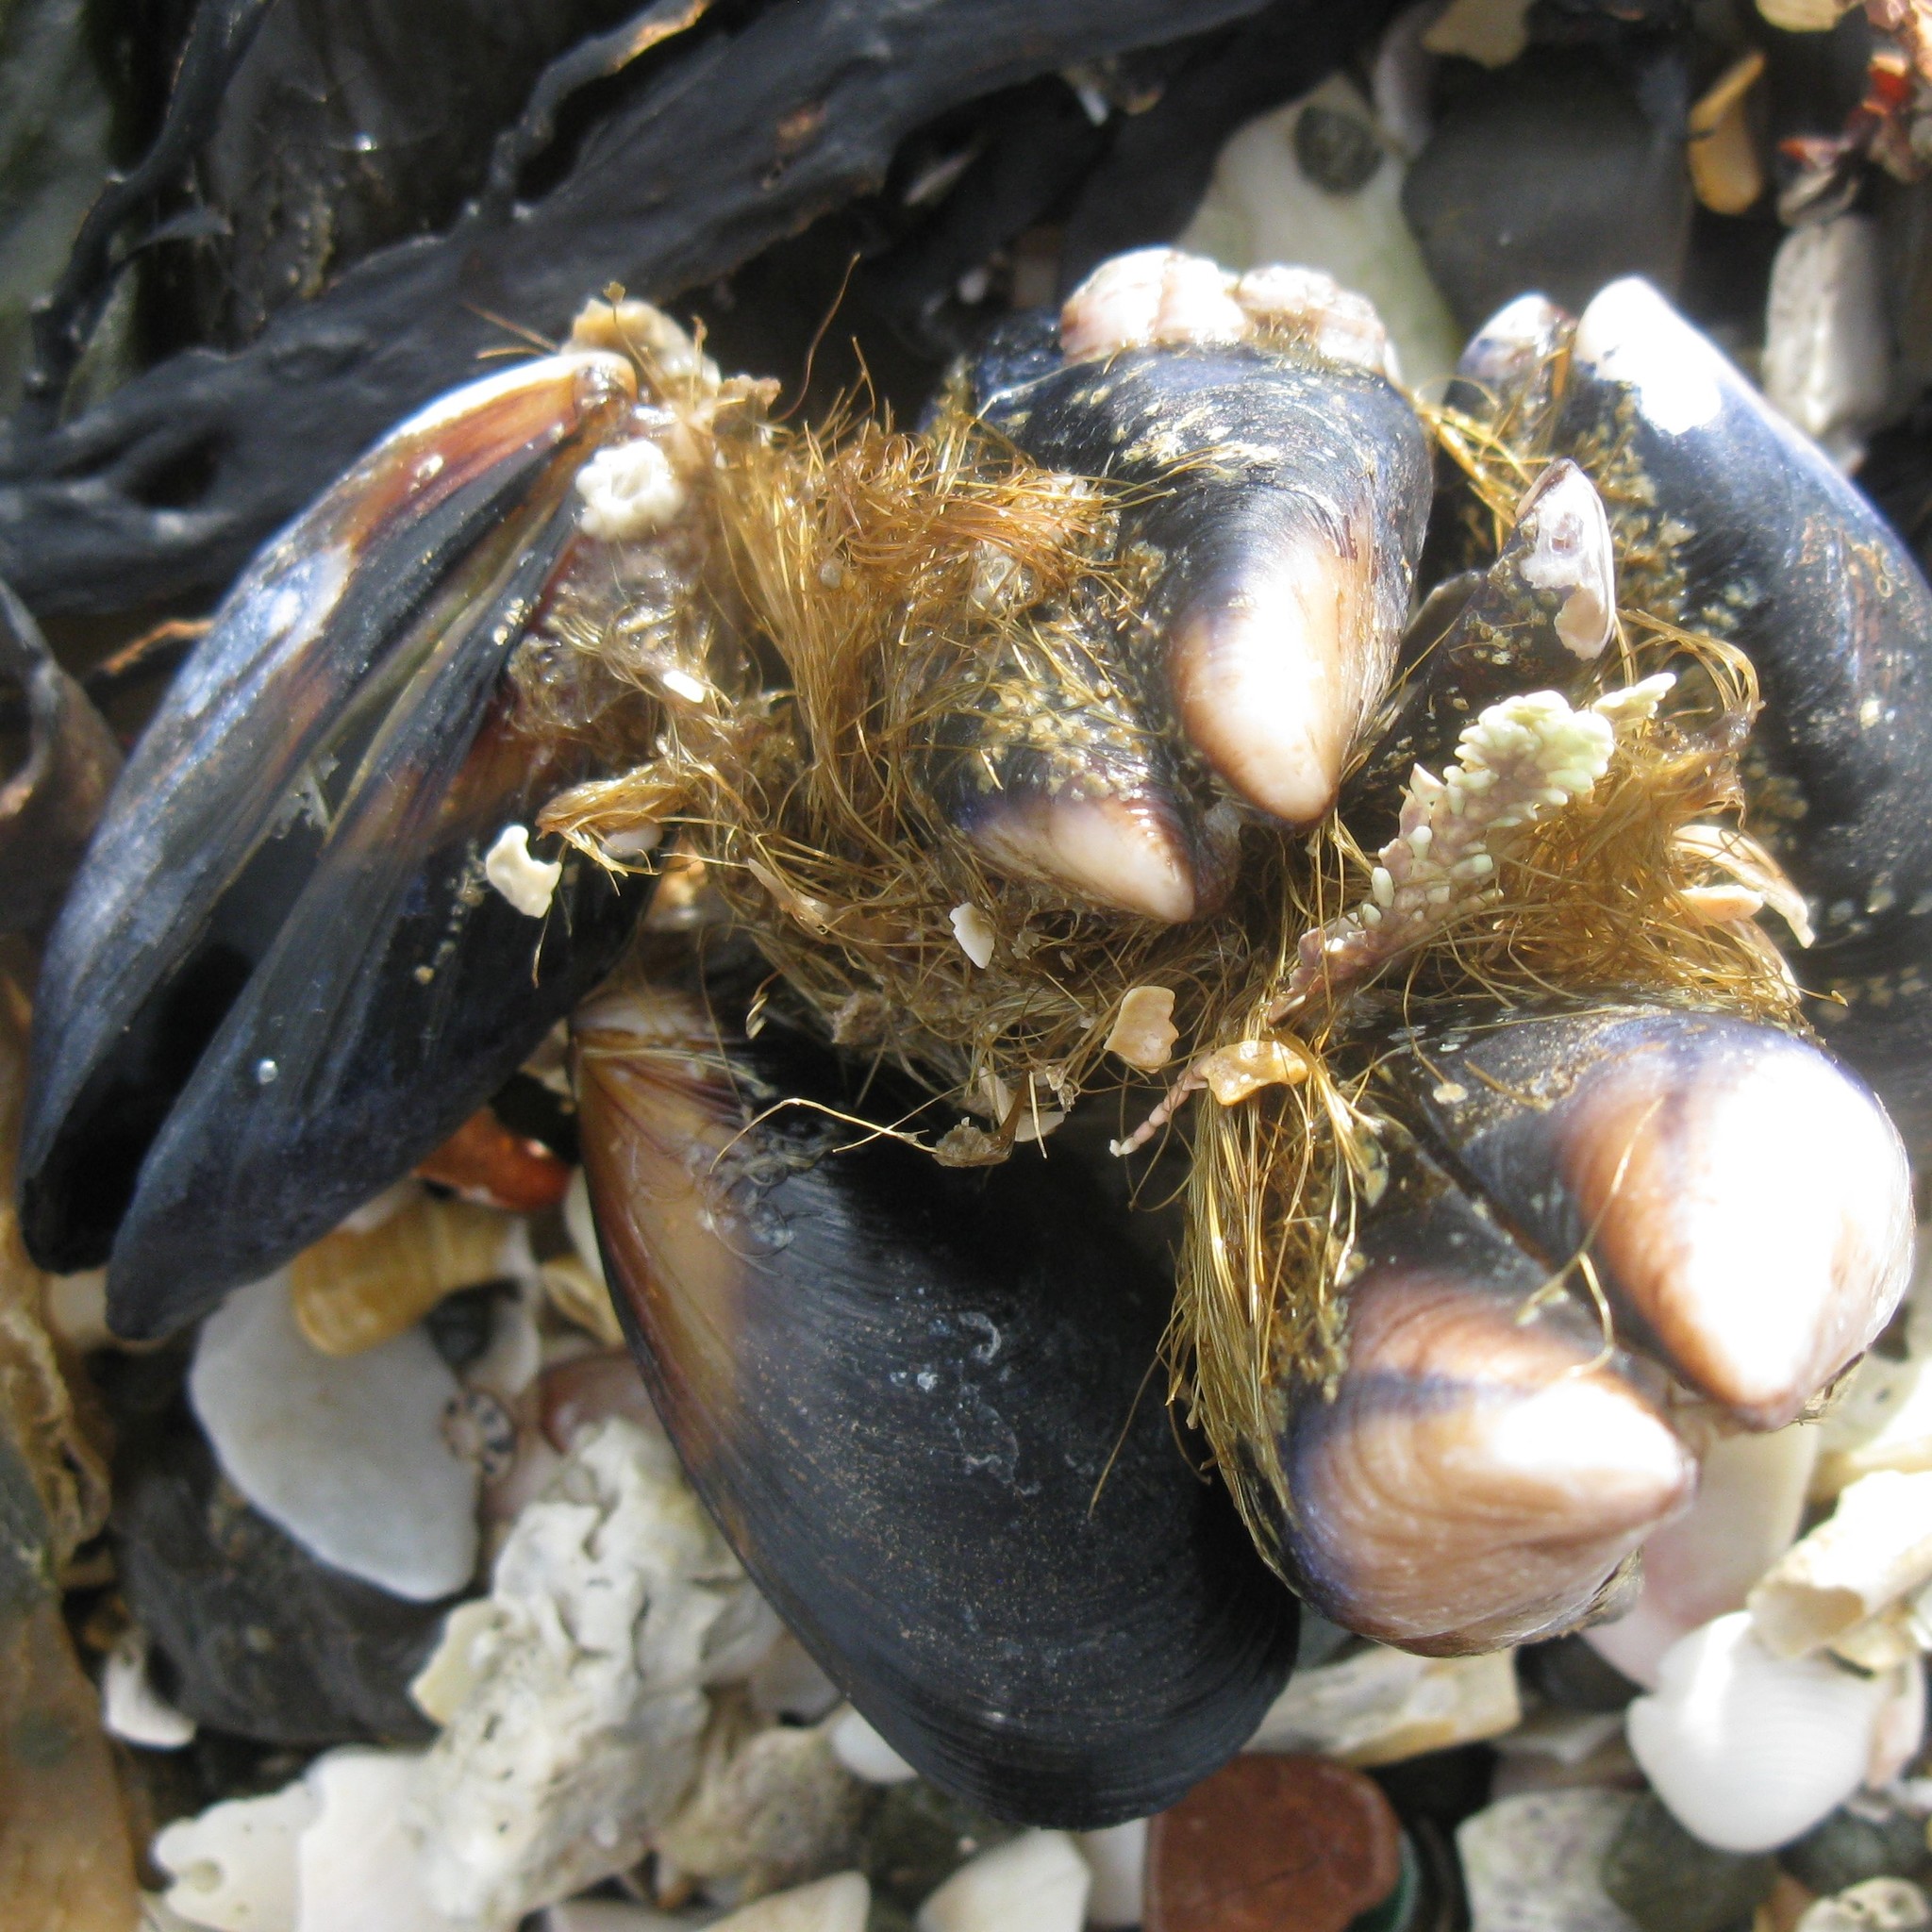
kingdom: Animalia
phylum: Mollusca
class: Bivalvia
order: Mytilida
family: Mytilidae
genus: Mytilus
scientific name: Mytilus planulatus
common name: Australian mussel
